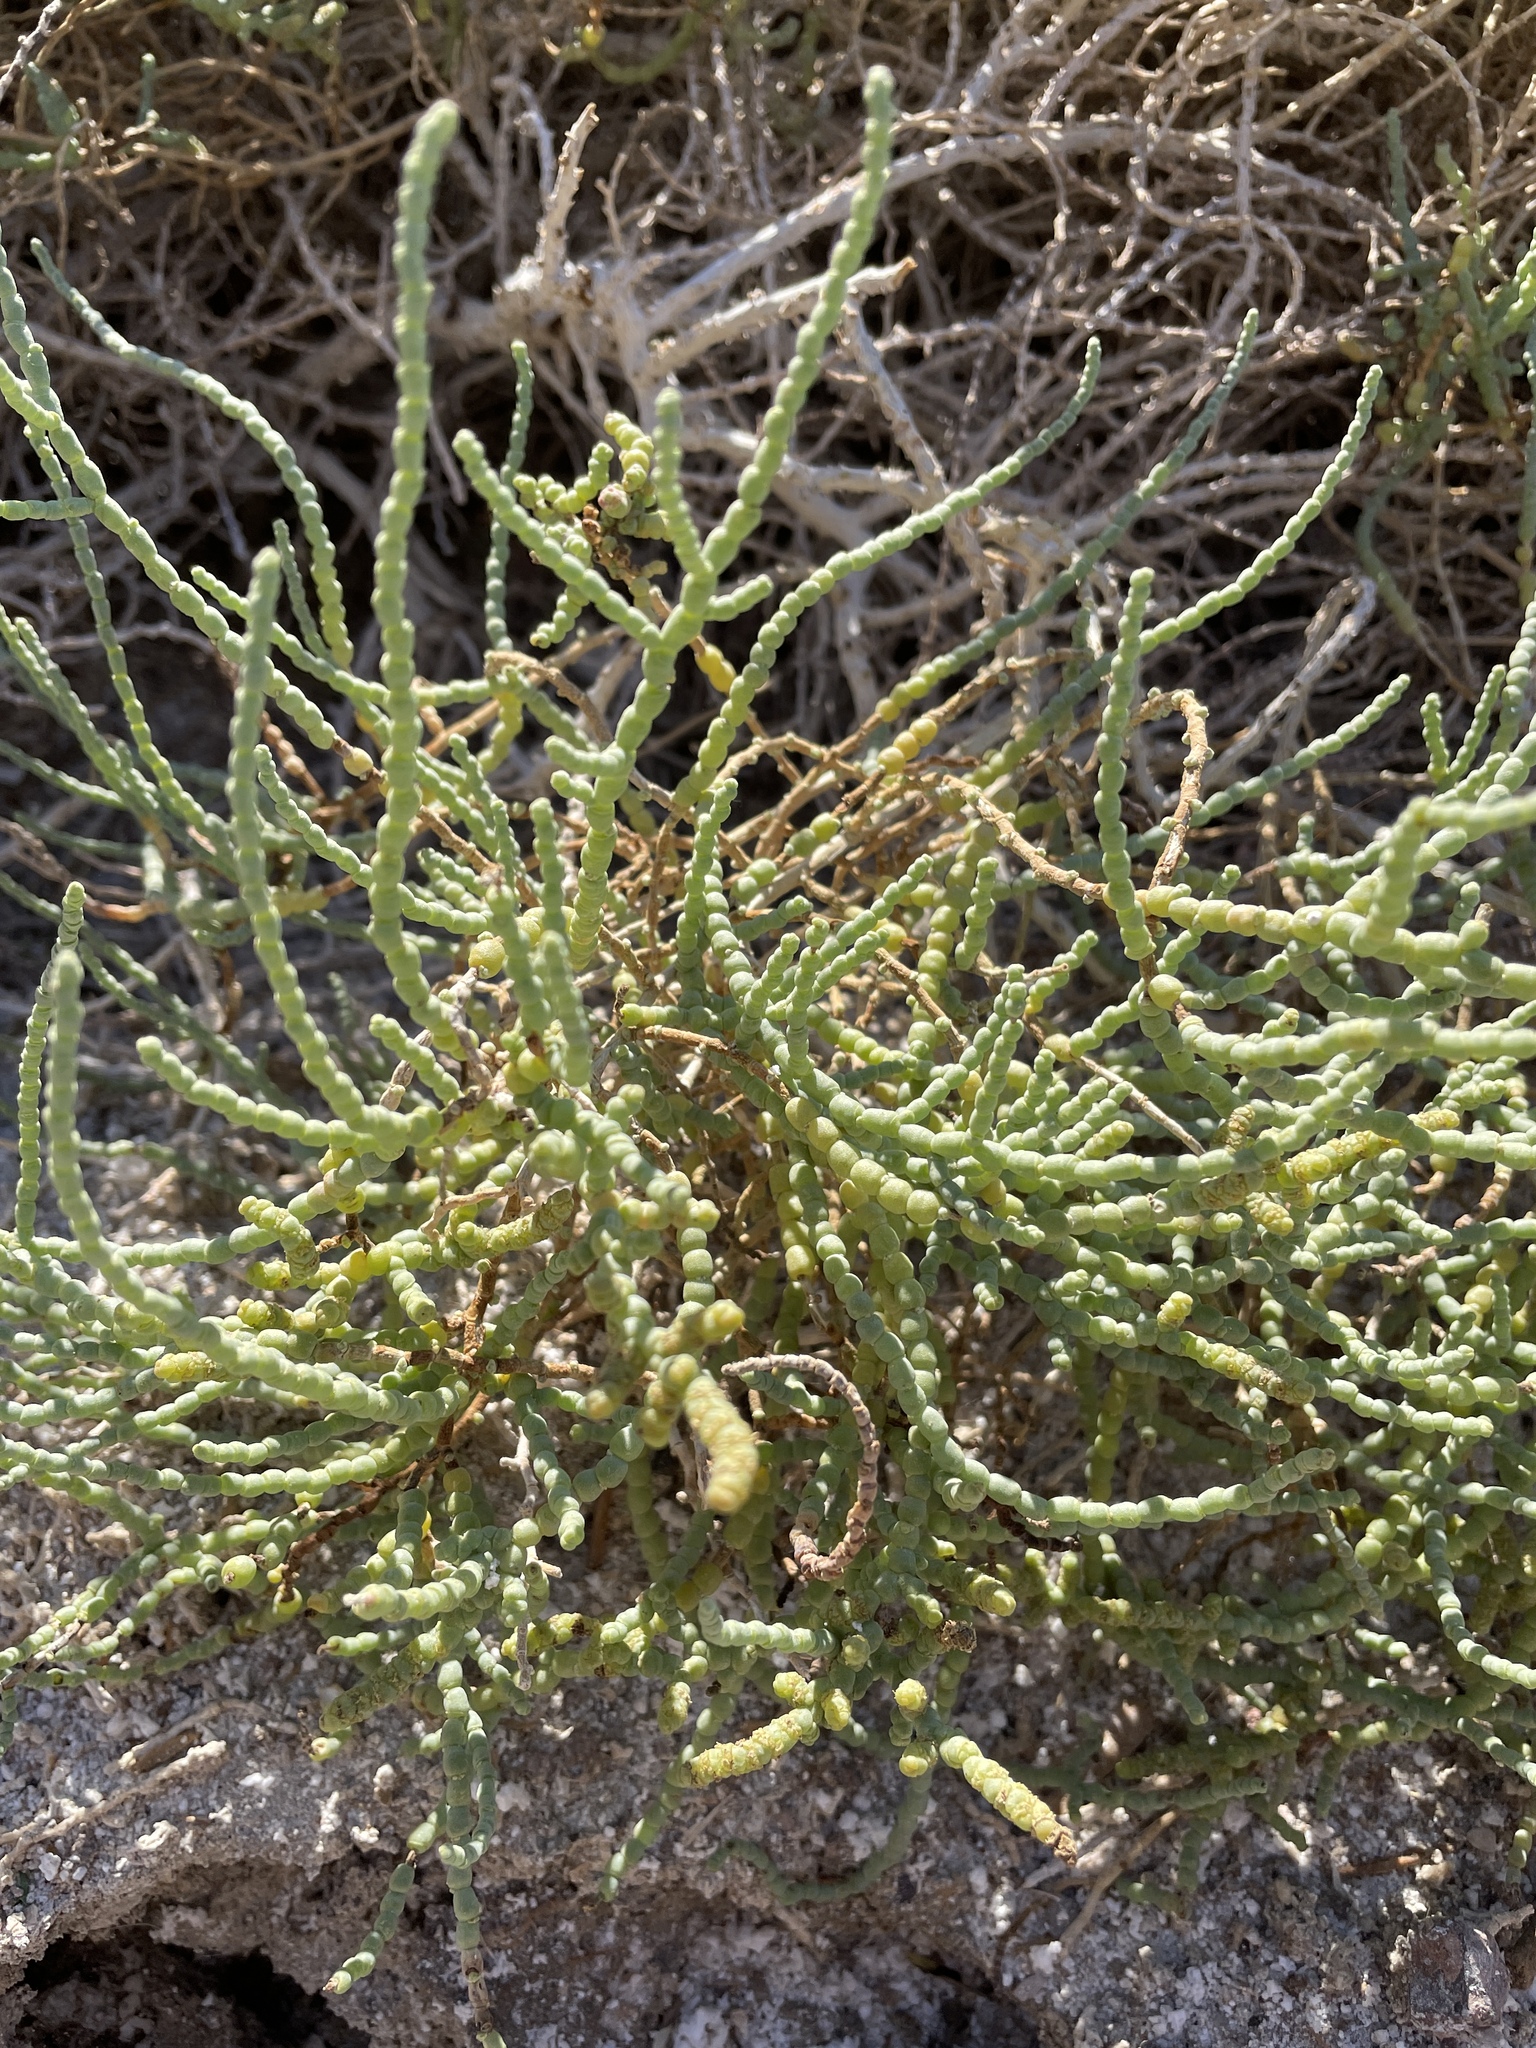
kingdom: Plantae
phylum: Tracheophyta
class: Magnoliopsida
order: Caryophyllales
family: Amaranthaceae
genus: Allenrolfea
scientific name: Allenrolfea occidentalis
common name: Iodine-bush
